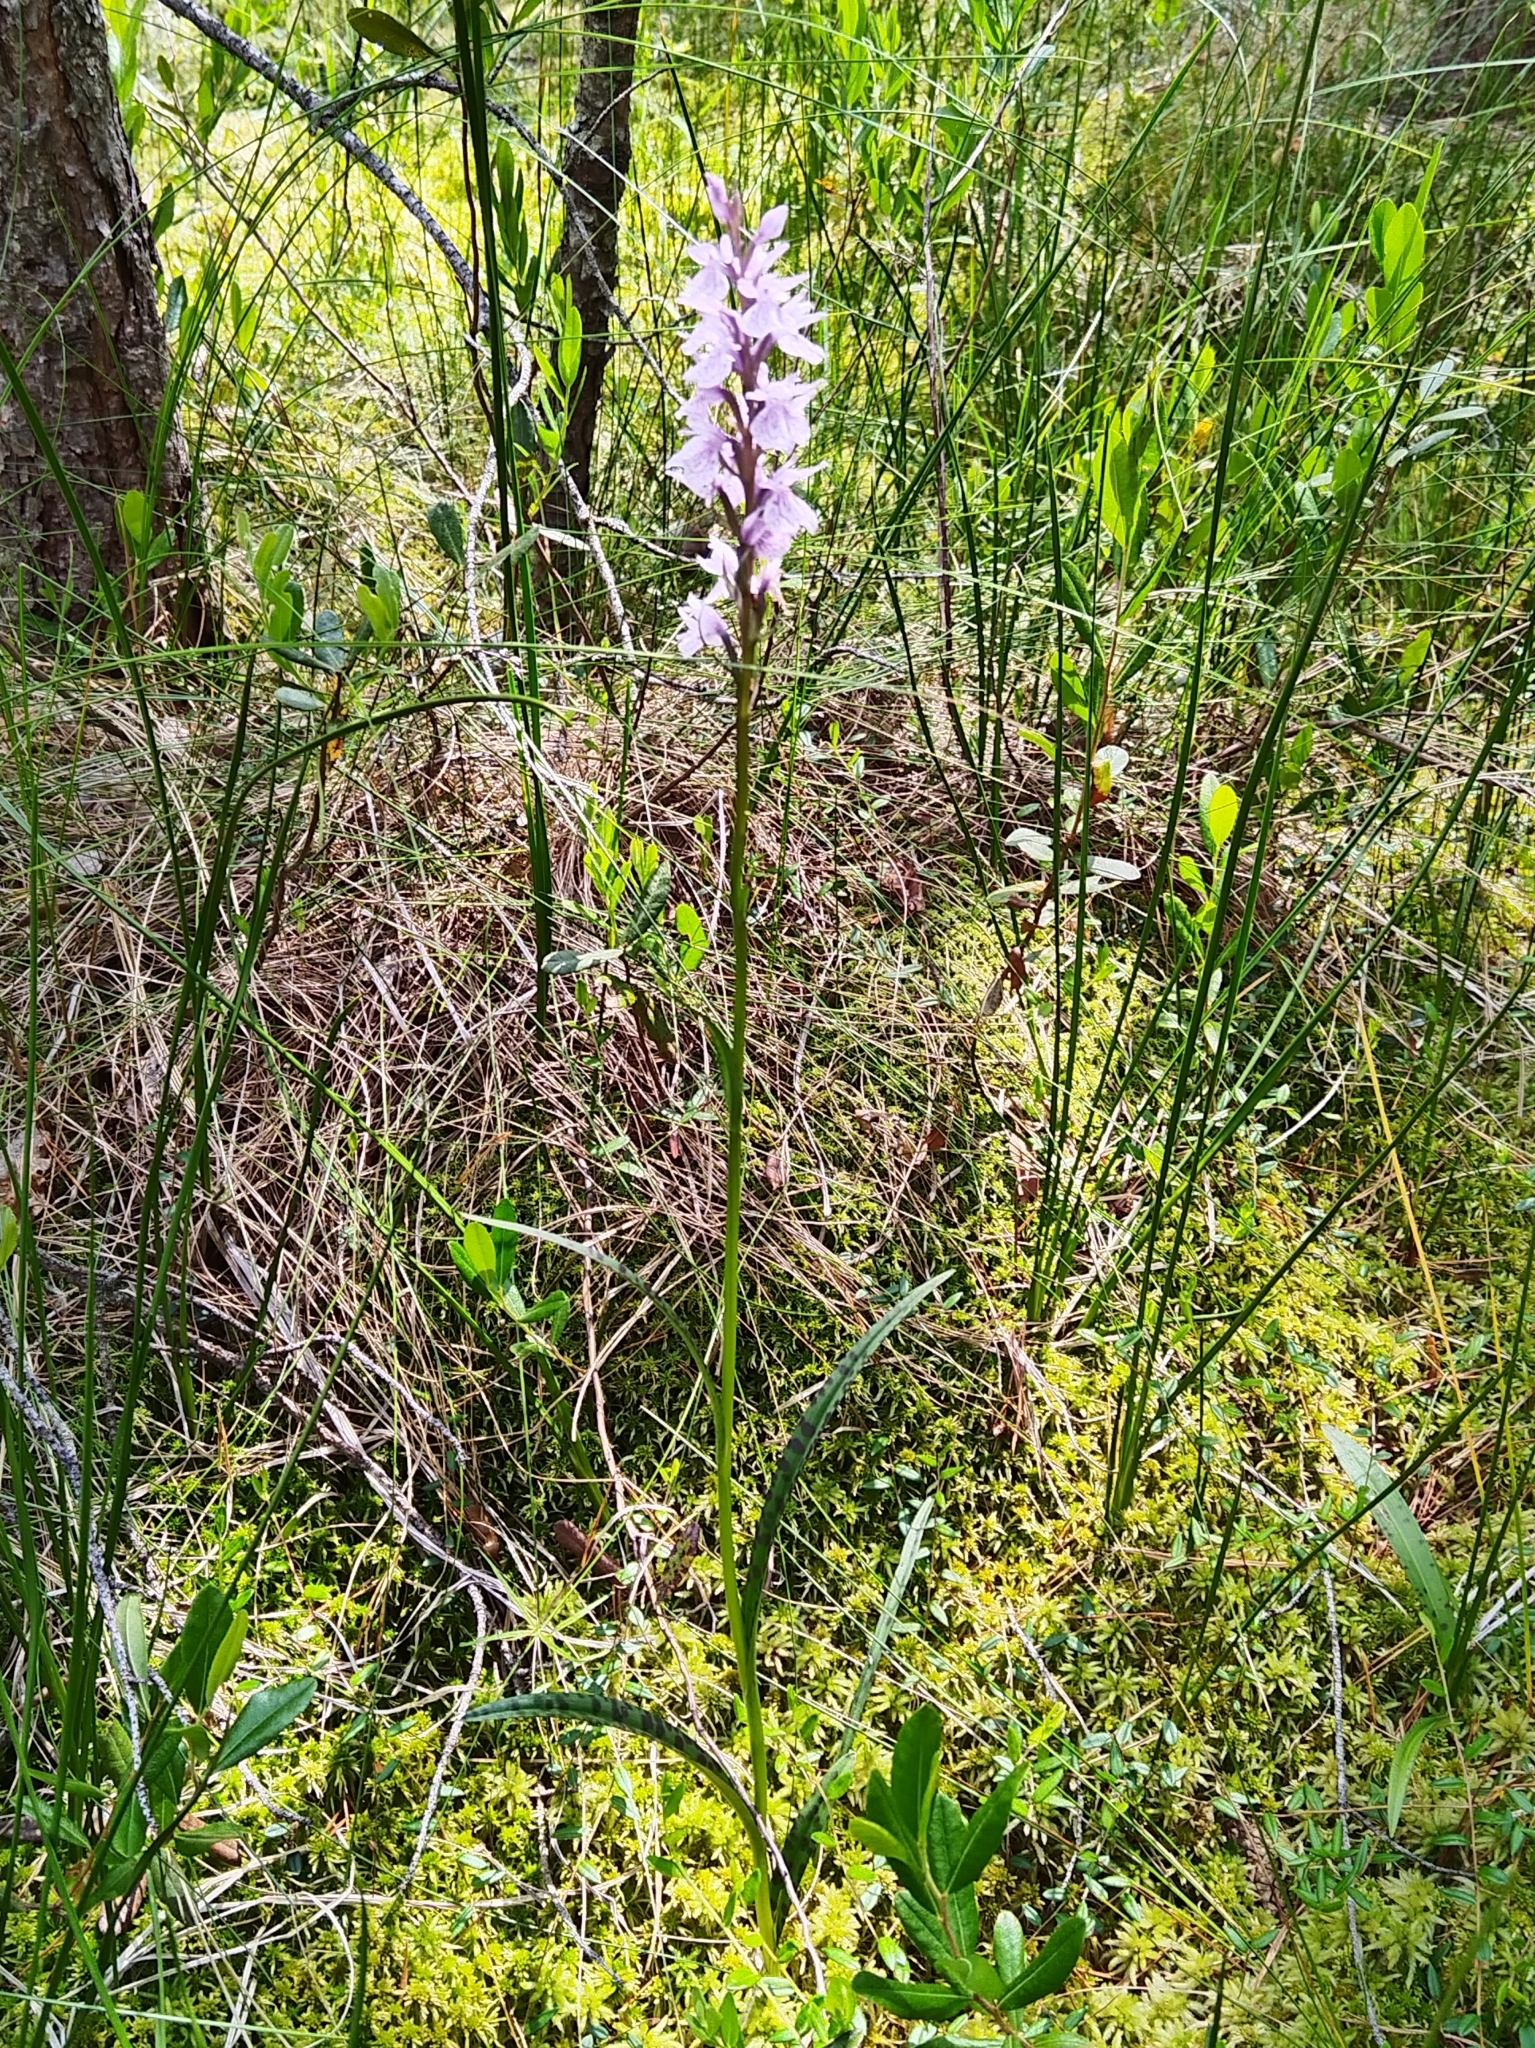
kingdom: Plantae
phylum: Tracheophyta
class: Liliopsida
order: Asparagales
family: Orchidaceae
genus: Dactylorhiza
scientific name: Dactylorhiza maculata
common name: Heath spotted-orchid
